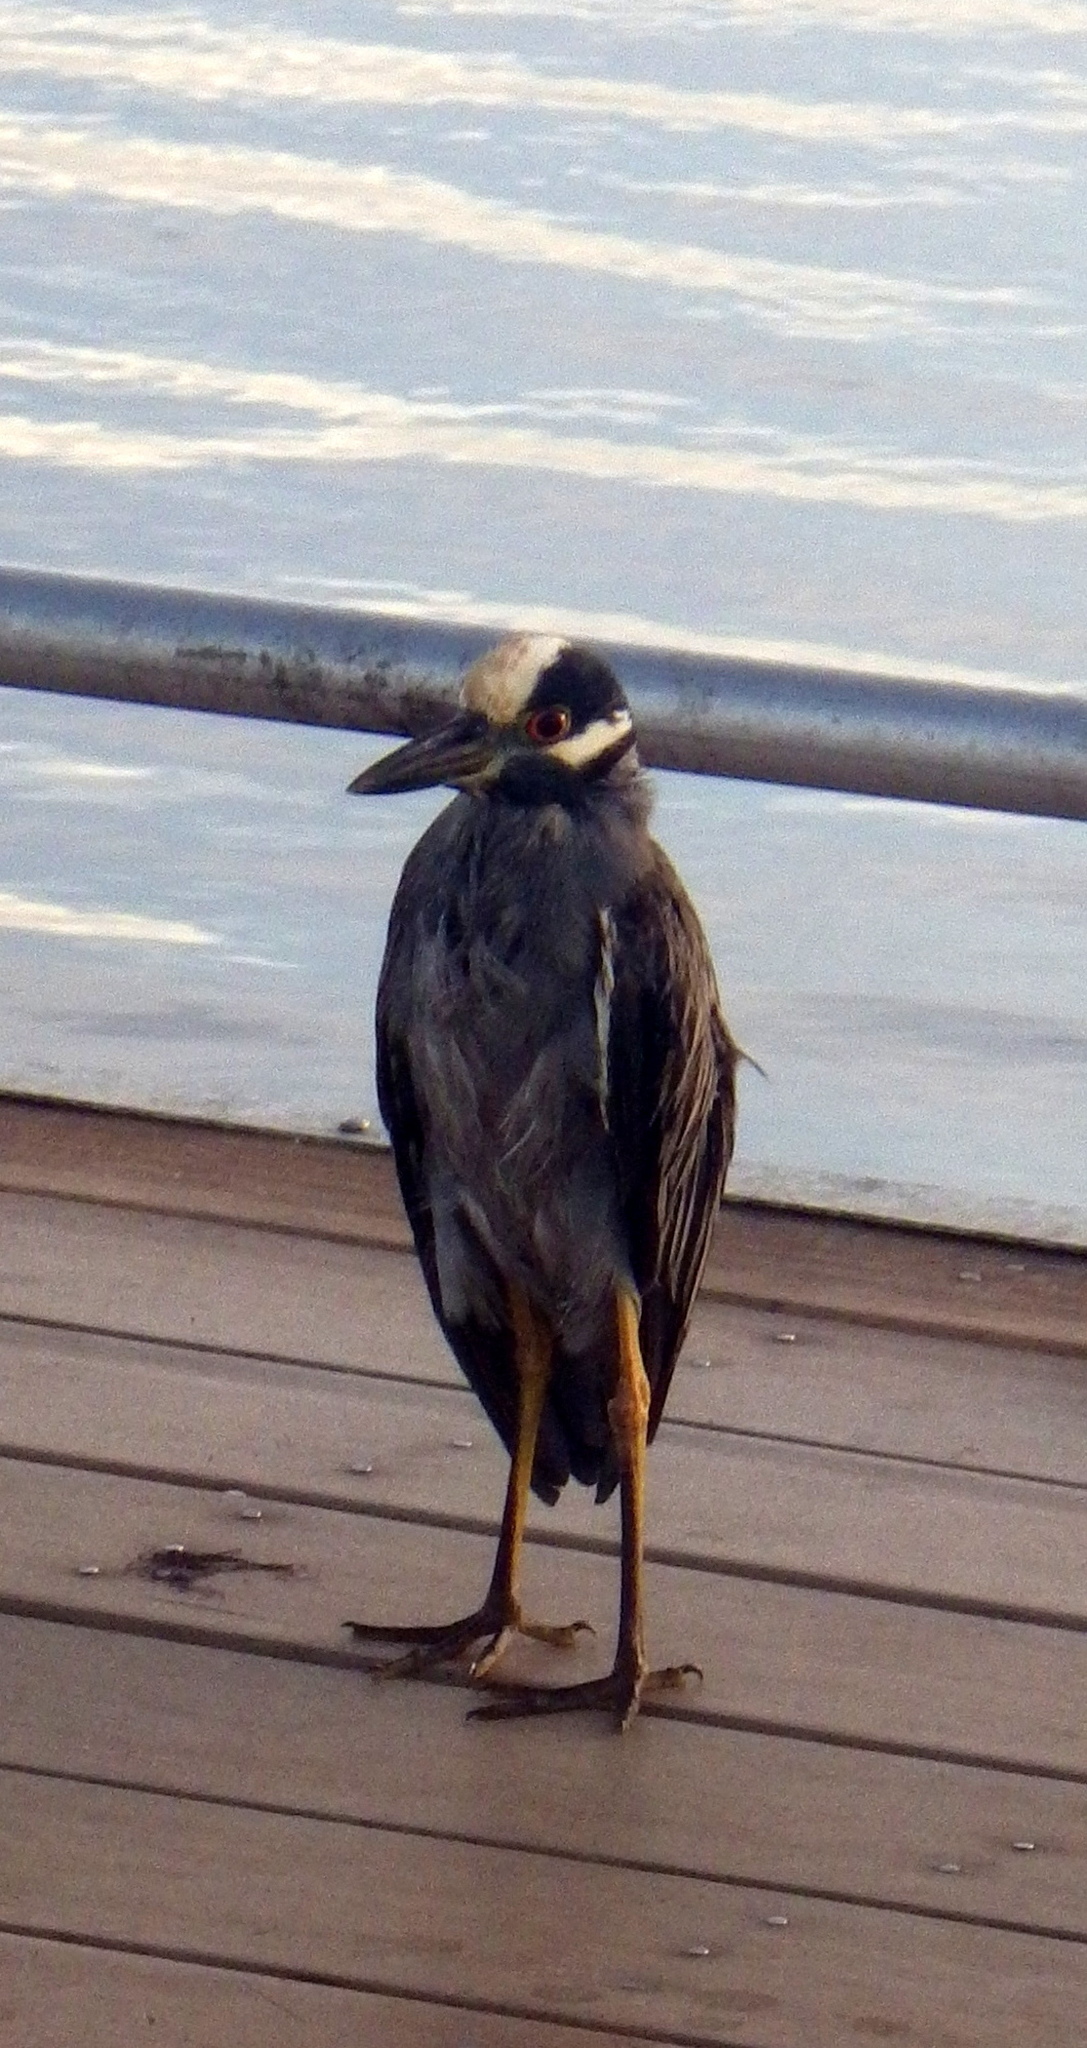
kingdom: Animalia
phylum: Chordata
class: Aves
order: Pelecaniformes
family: Ardeidae
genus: Nyctanassa
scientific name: Nyctanassa violacea
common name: Yellow-crowned night heron
